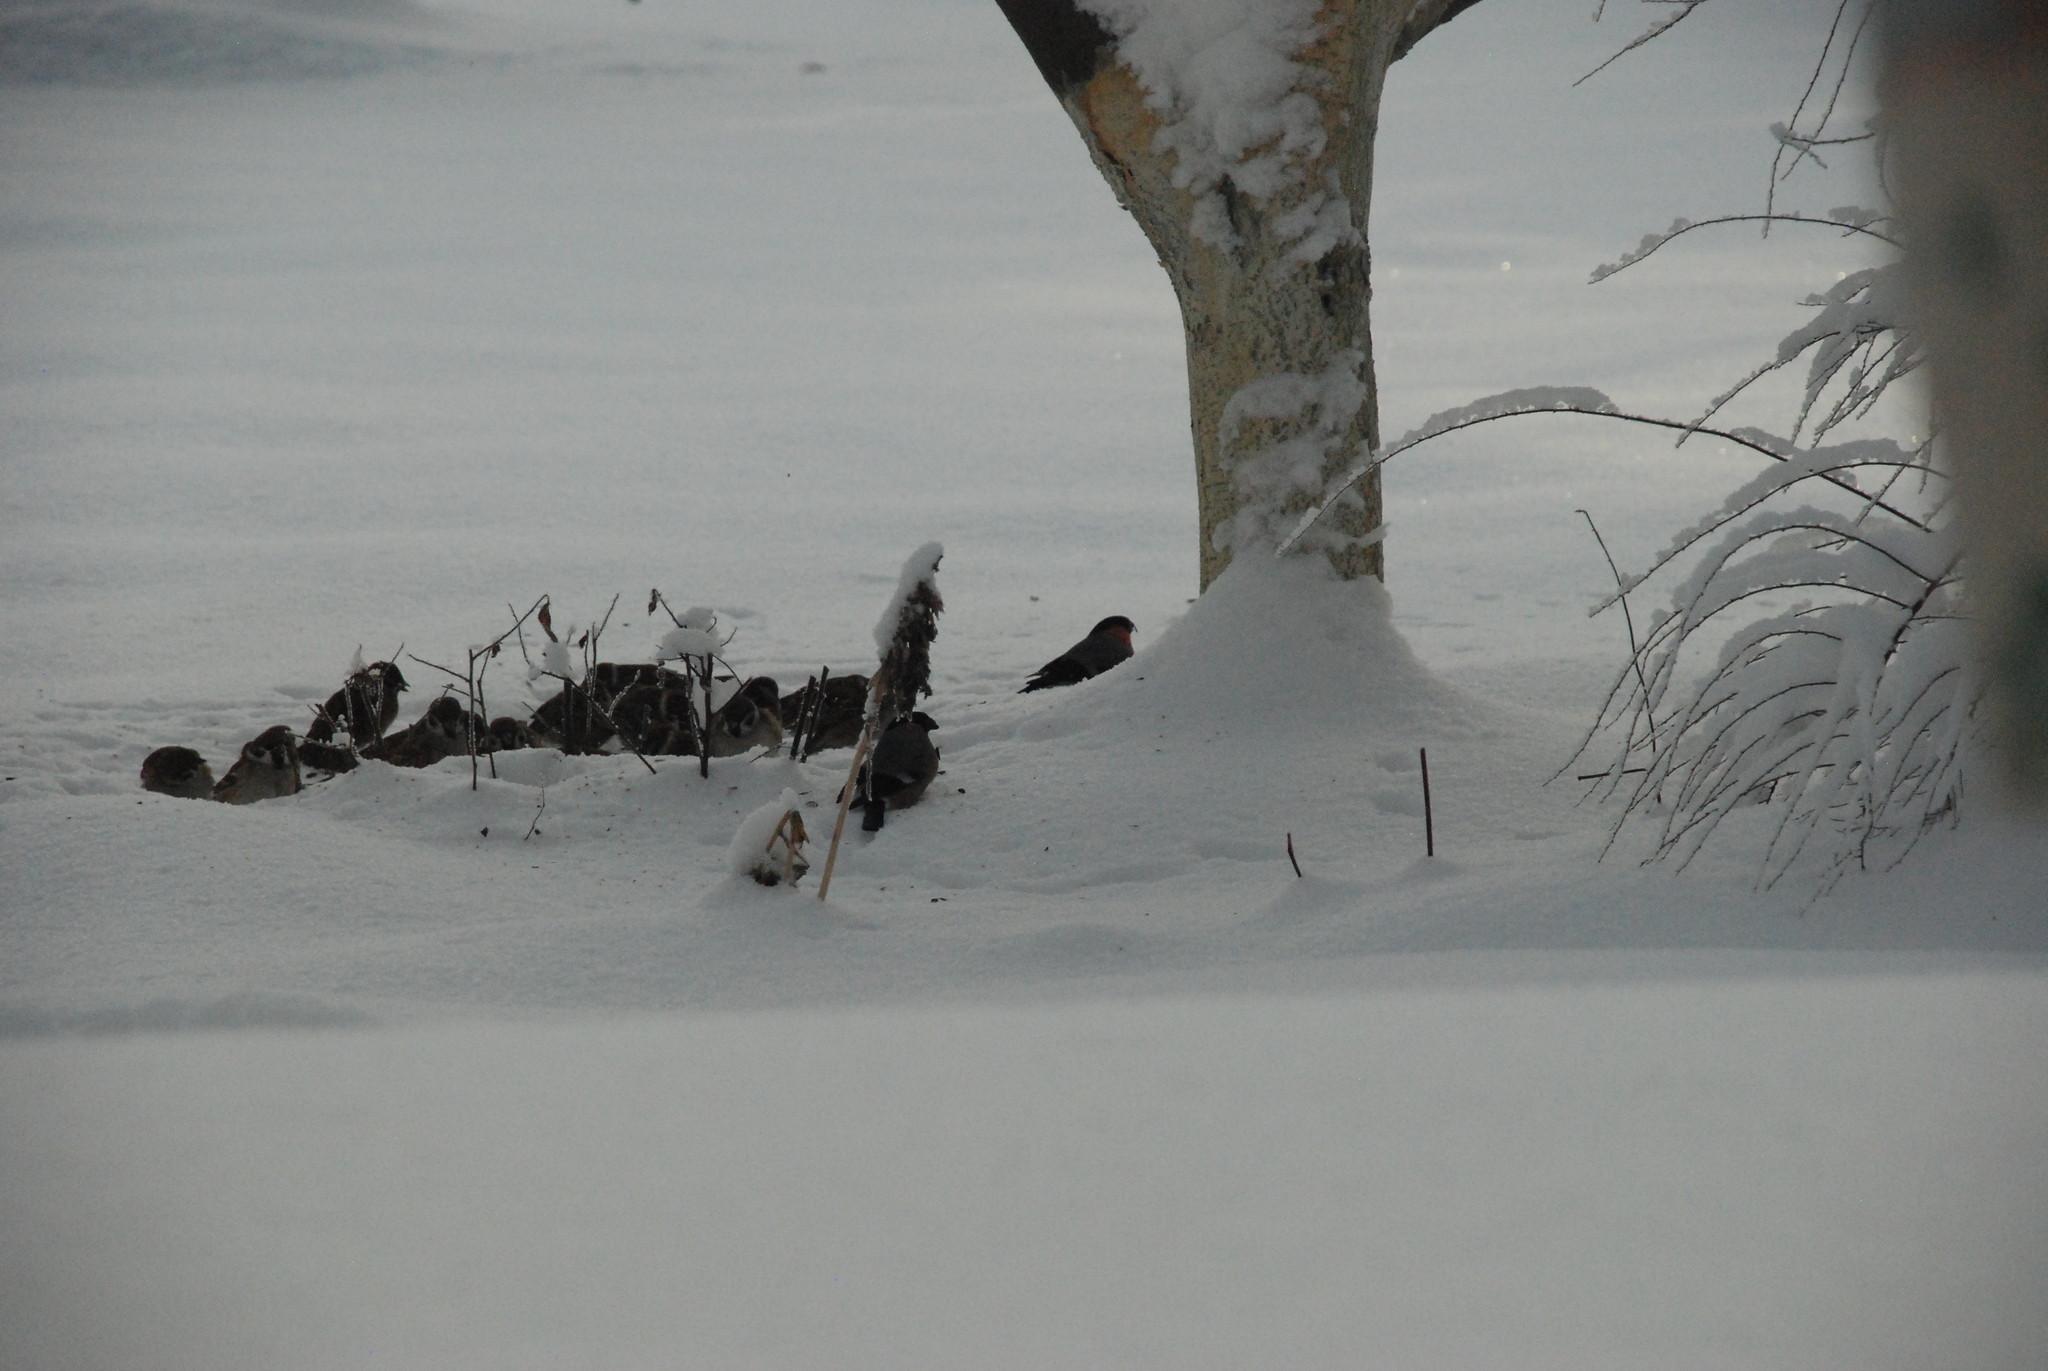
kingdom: Animalia
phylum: Chordata
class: Aves
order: Passeriformes
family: Passeridae
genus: Passer
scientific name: Passer montanus
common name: Eurasian tree sparrow
